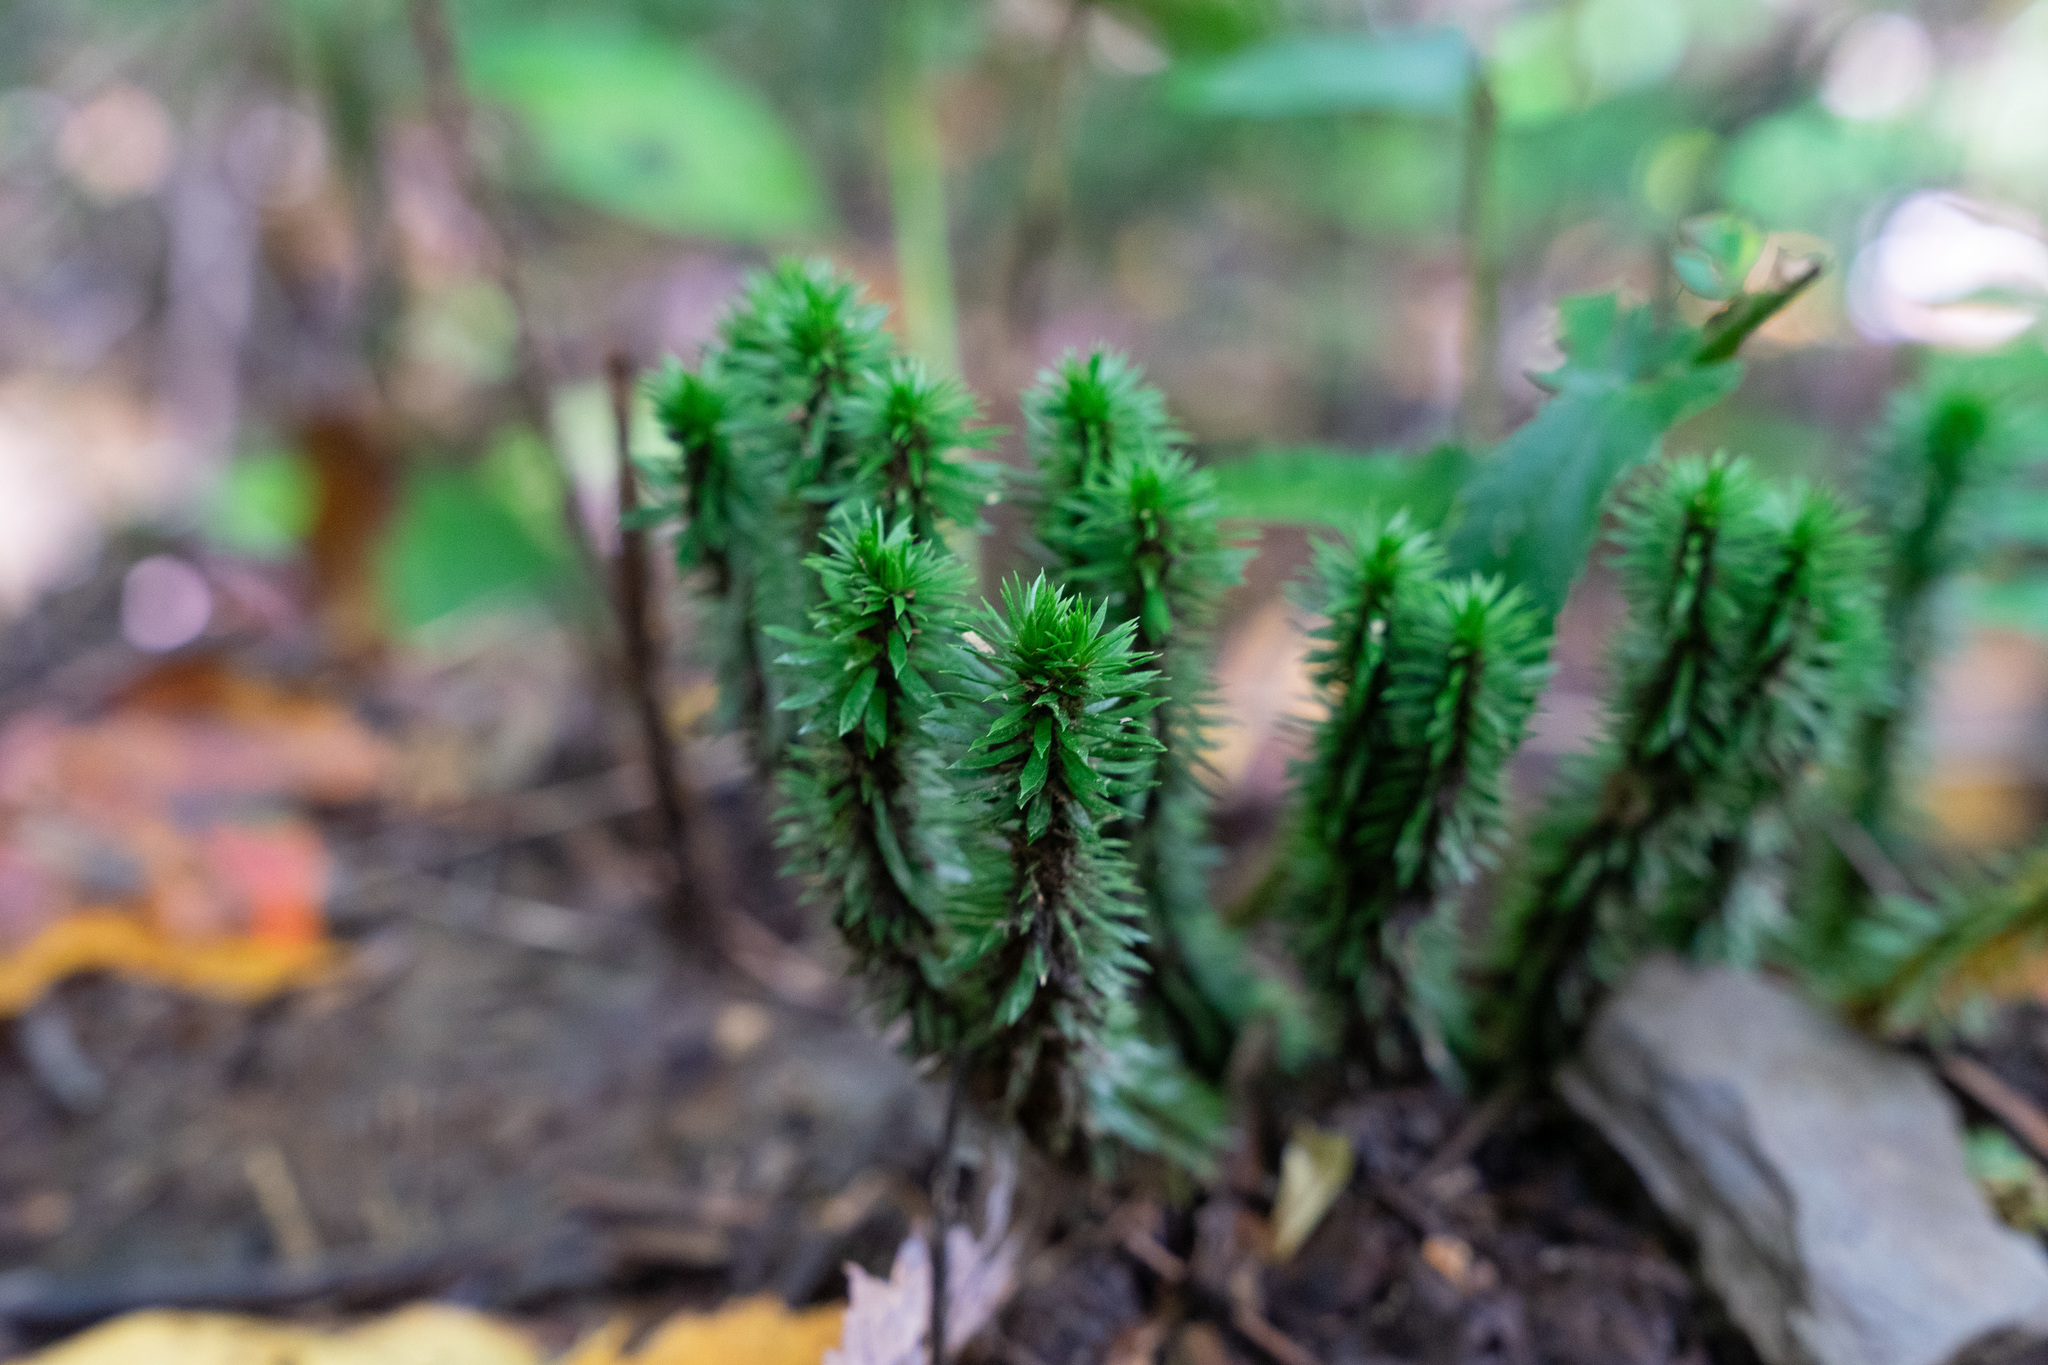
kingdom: Plantae
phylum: Tracheophyta
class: Lycopodiopsida
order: Lycopodiales
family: Lycopodiaceae
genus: Huperzia
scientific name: Huperzia lucidula
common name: Shining clubmoss
